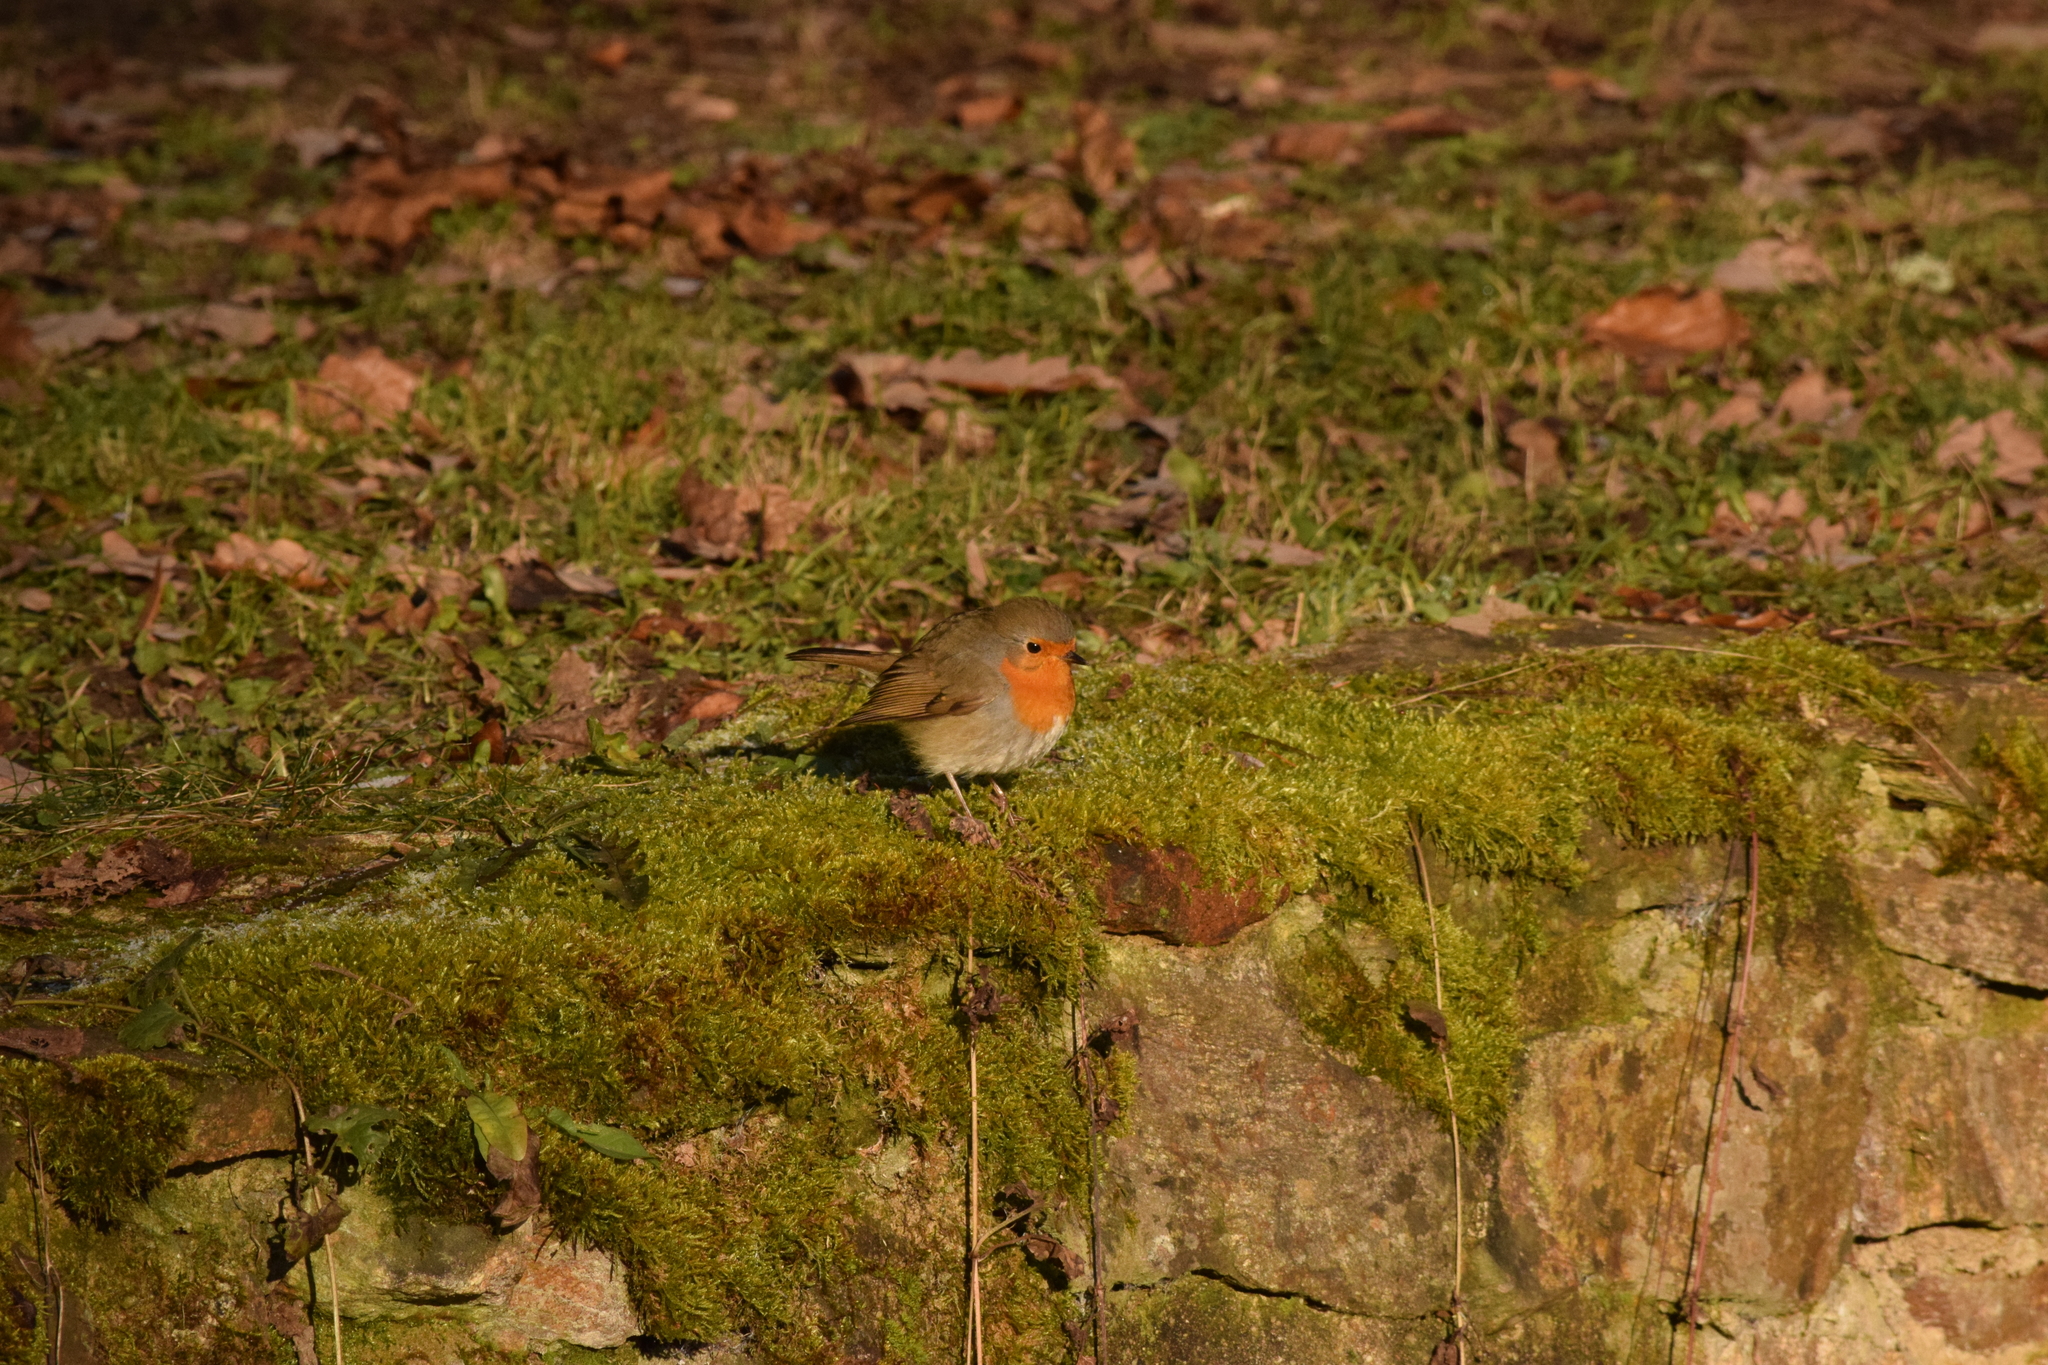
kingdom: Animalia
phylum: Chordata
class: Aves
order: Passeriformes
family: Muscicapidae
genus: Erithacus
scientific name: Erithacus rubecula
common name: European robin
